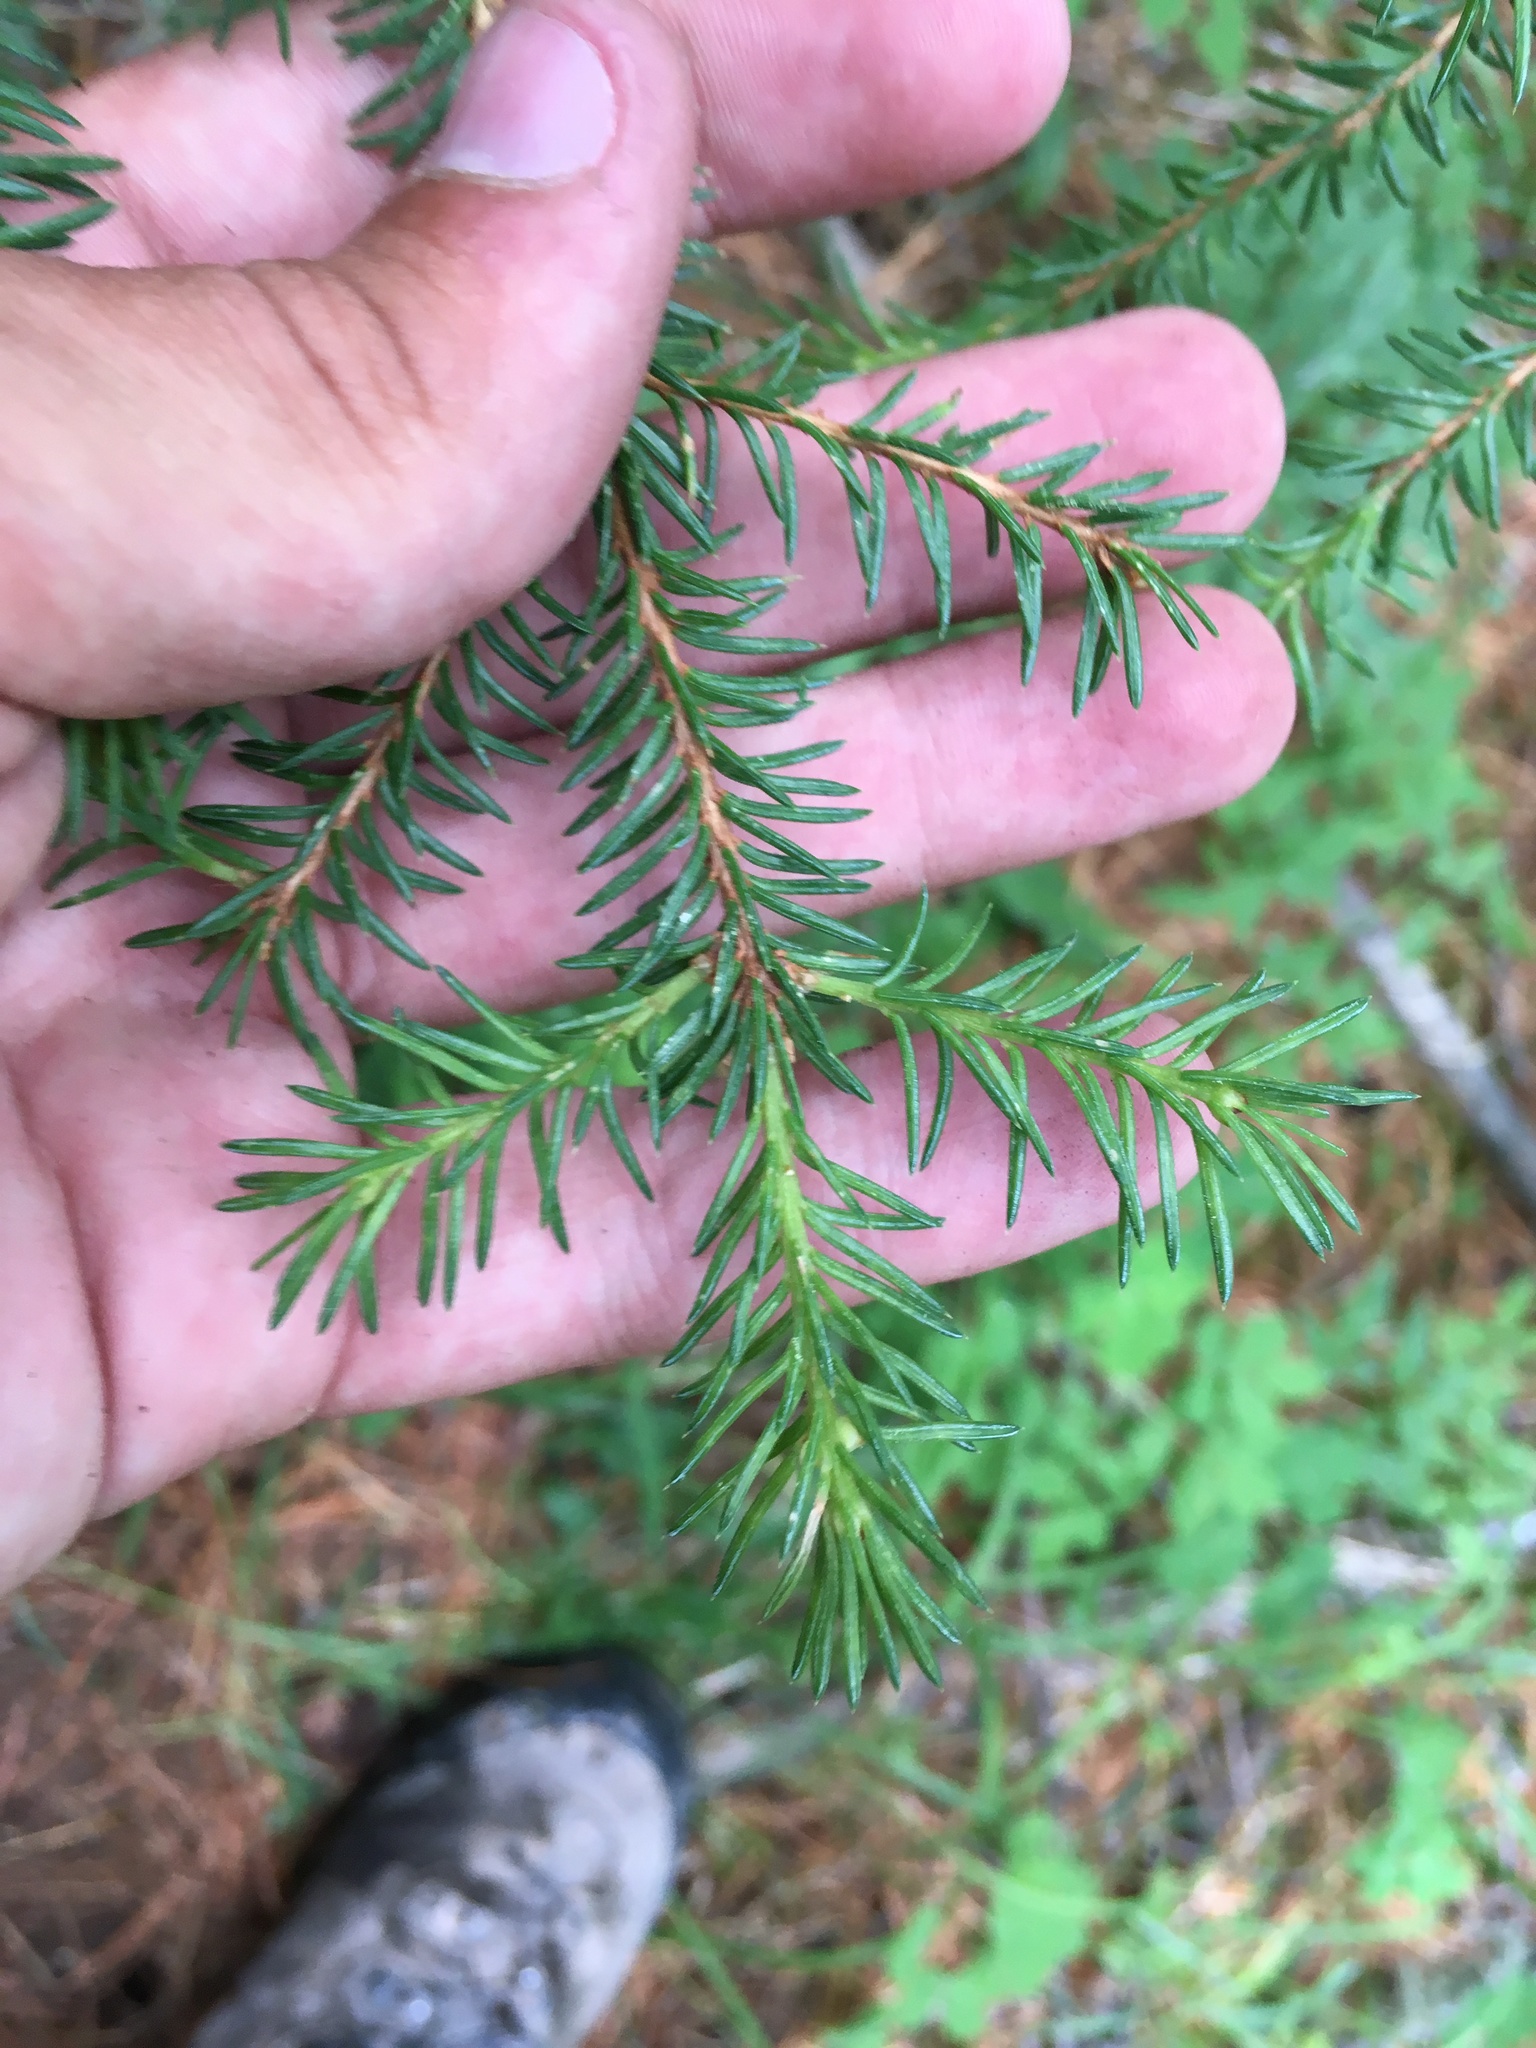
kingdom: Plantae
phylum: Tracheophyta
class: Pinopsida
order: Pinales
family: Pinaceae
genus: Picea
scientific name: Picea obovata
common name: Siberian spruce
